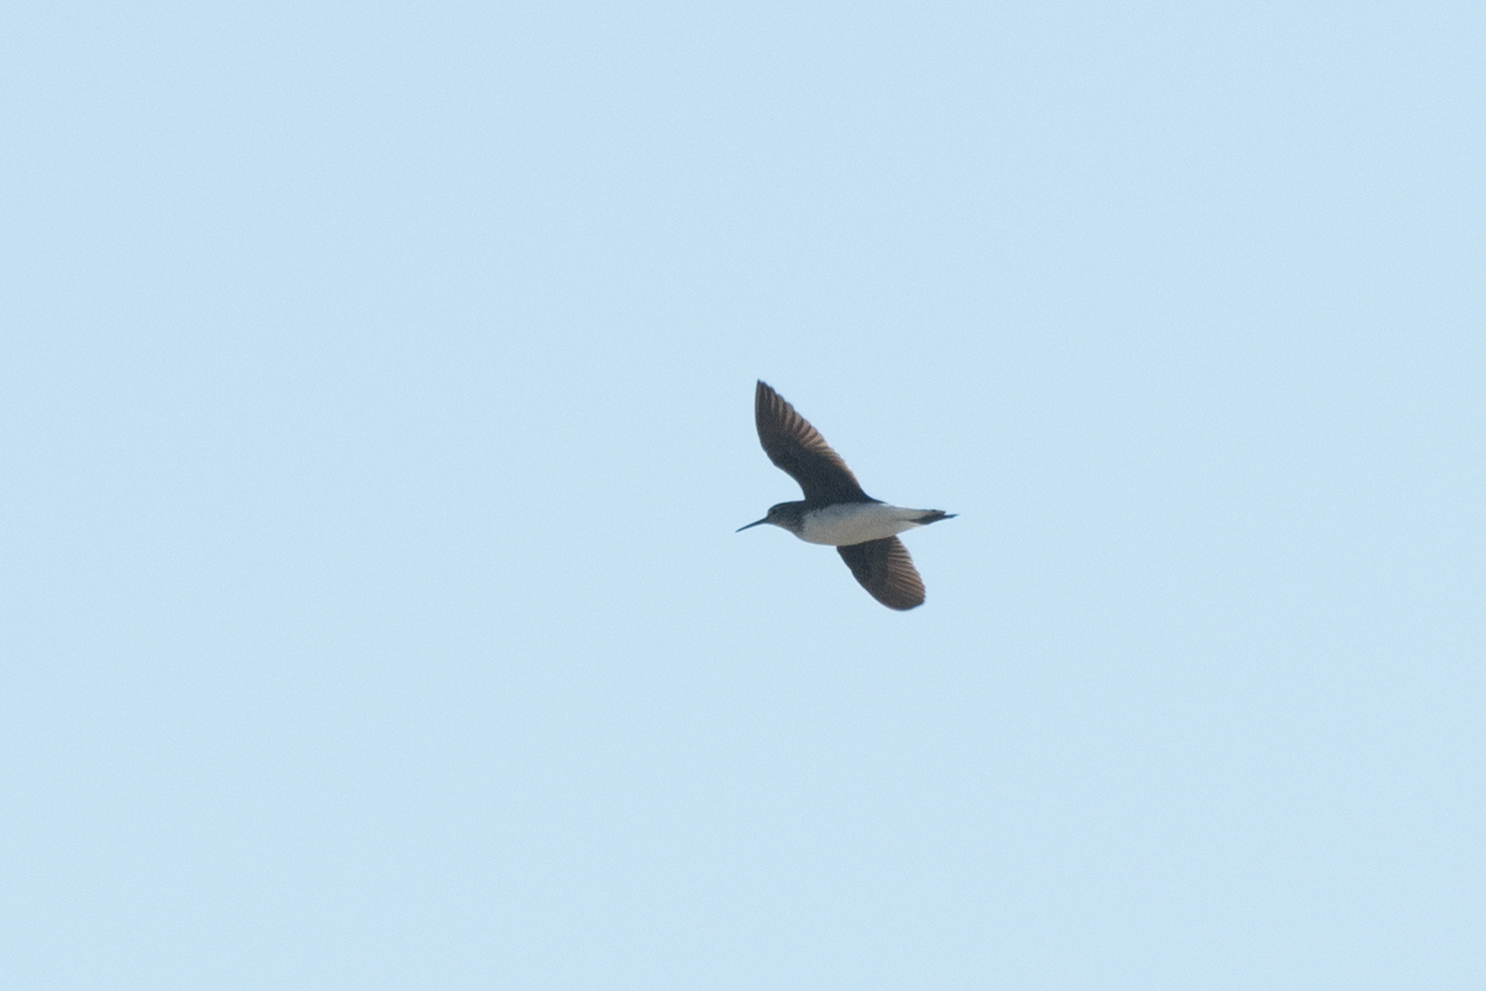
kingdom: Animalia
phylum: Chordata
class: Aves
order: Charadriiformes
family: Scolopacidae
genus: Tringa
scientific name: Tringa ochropus
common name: Green sandpiper
